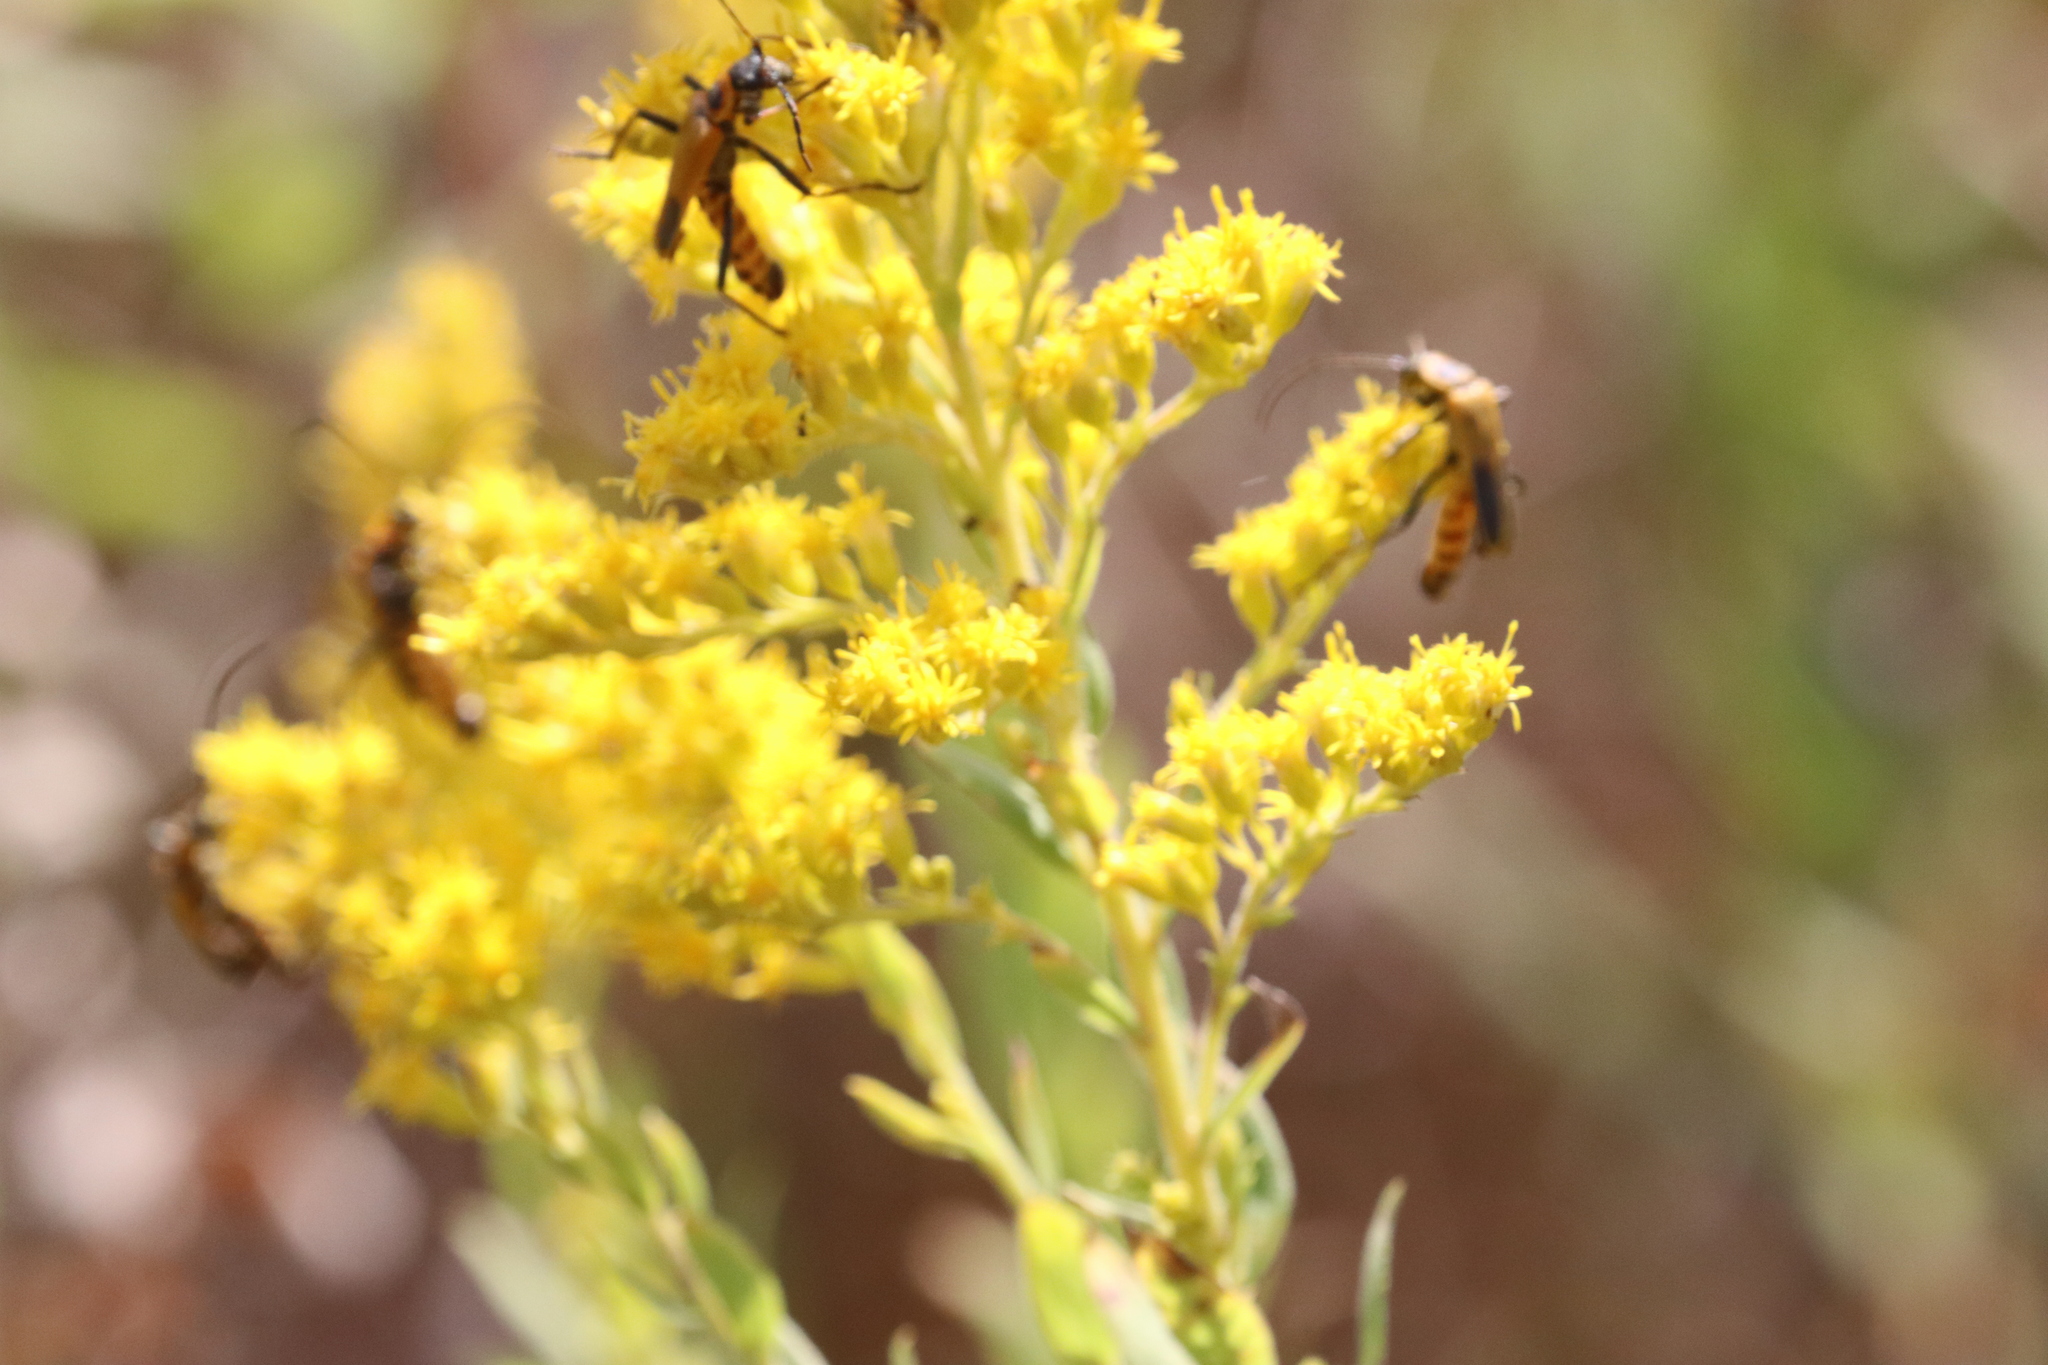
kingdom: Animalia
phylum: Arthropoda
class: Insecta
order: Coleoptera
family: Cantharidae
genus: Chauliognathus
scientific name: Chauliognathus pensylvanicus
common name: Goldenrod soldier beetle
